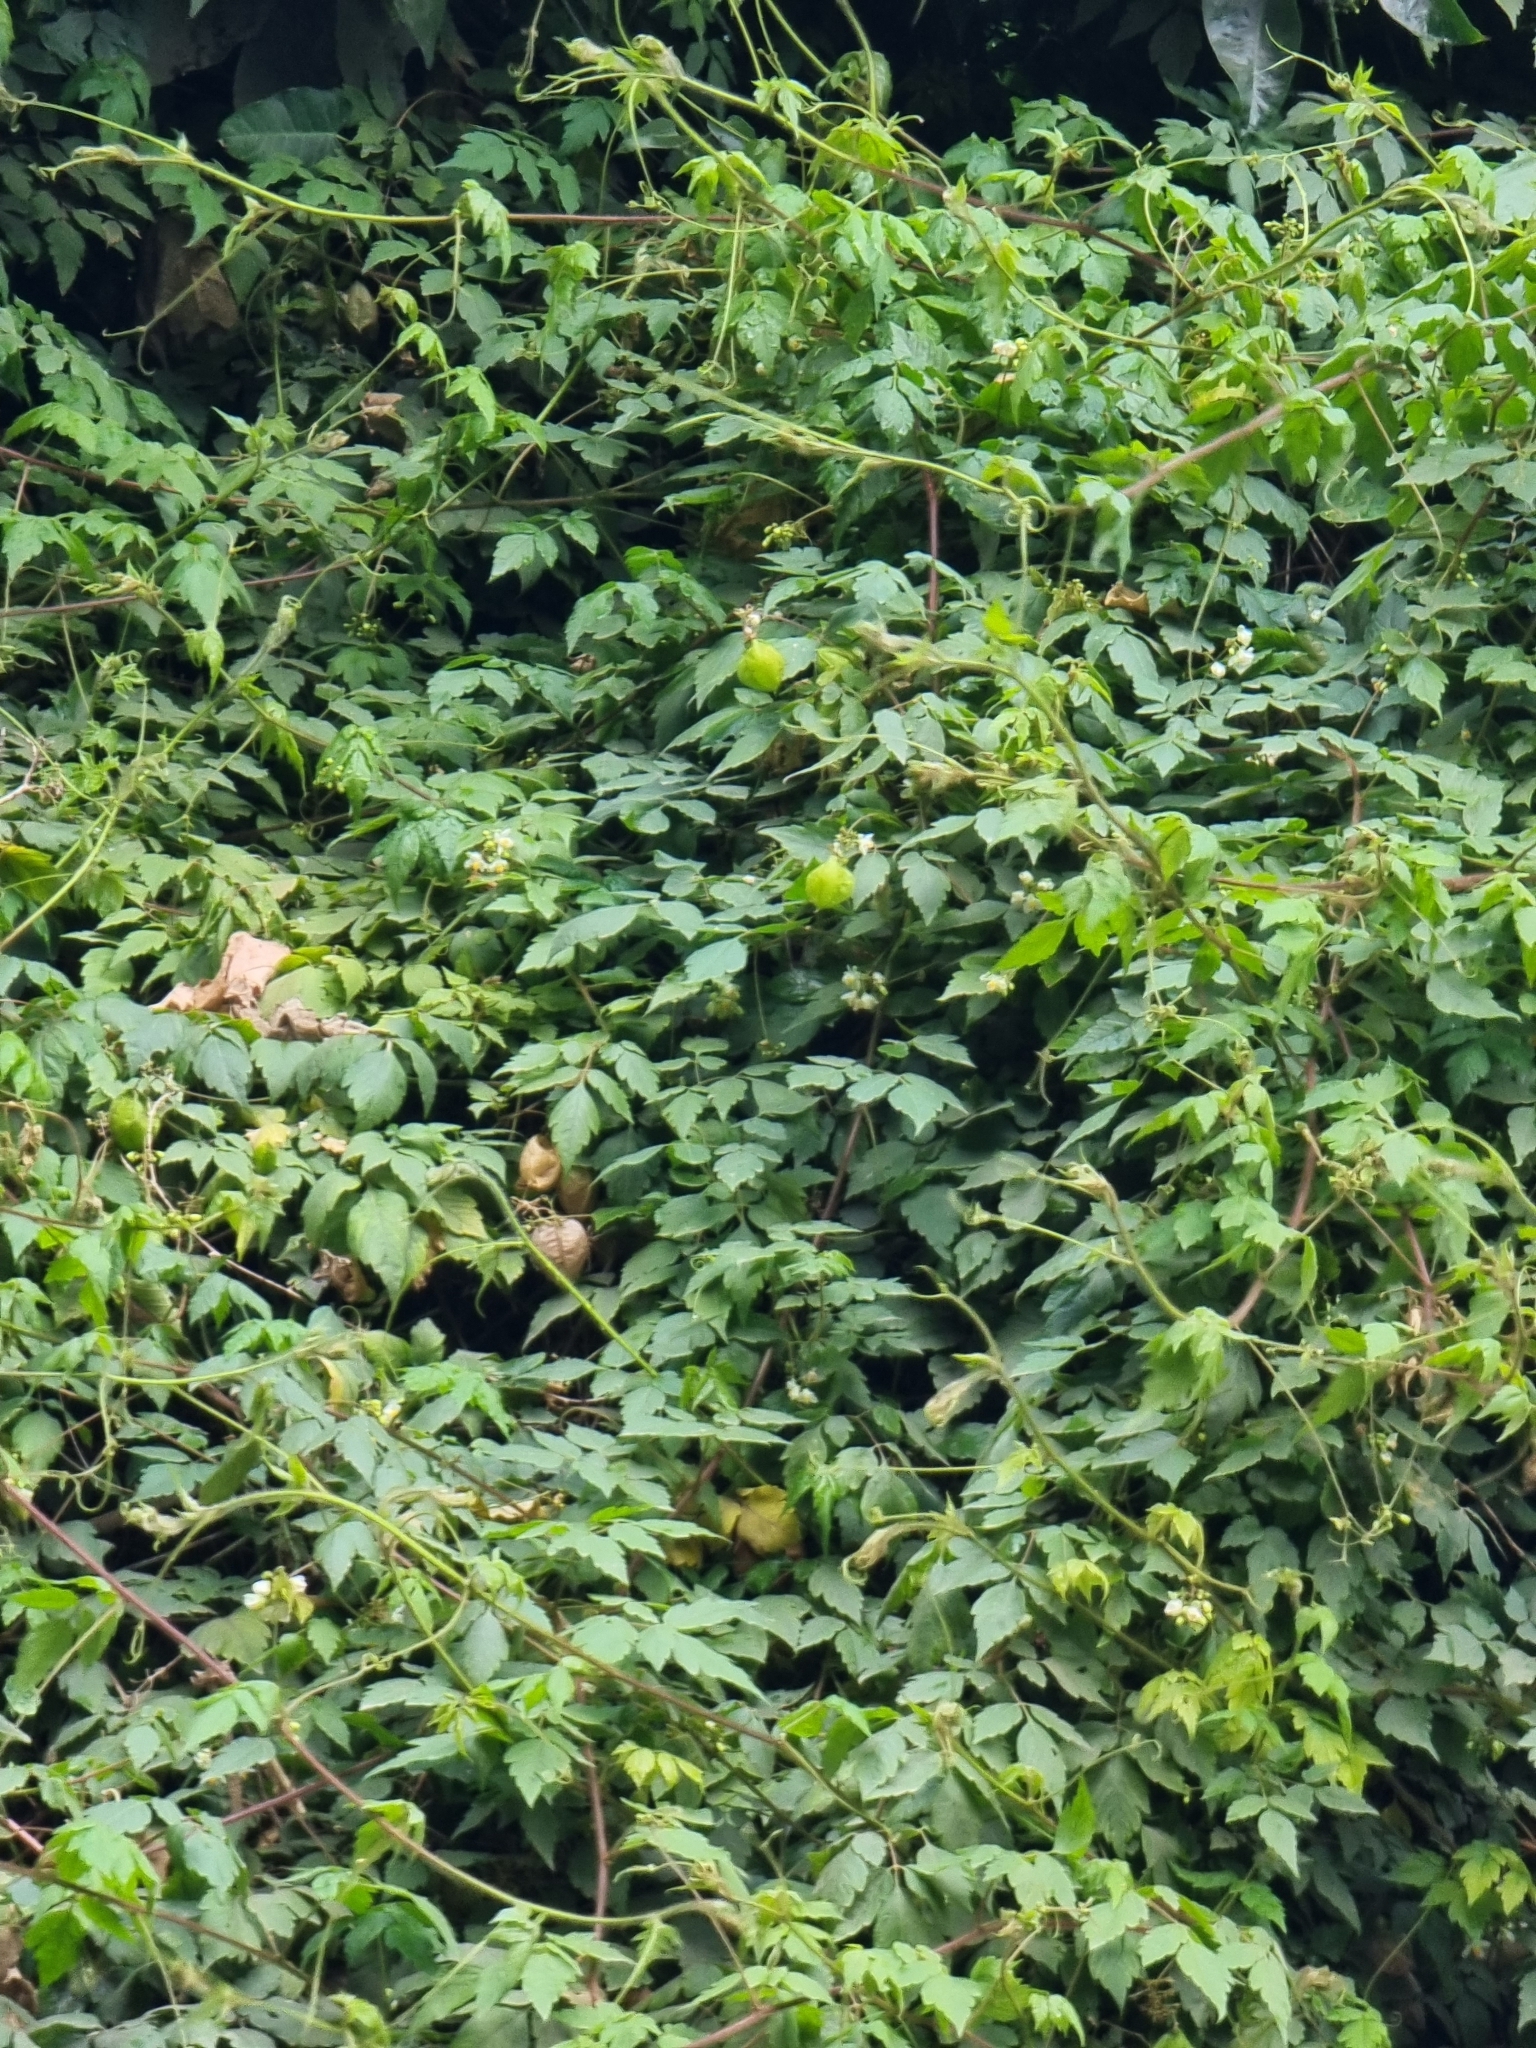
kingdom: Plantae
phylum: Tracheophyta
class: Magnoliopsida
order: Sapindales
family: Sapindaceae
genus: Cardiospermum
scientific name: Cardiospermum grandiflorum
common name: Balloon vine
